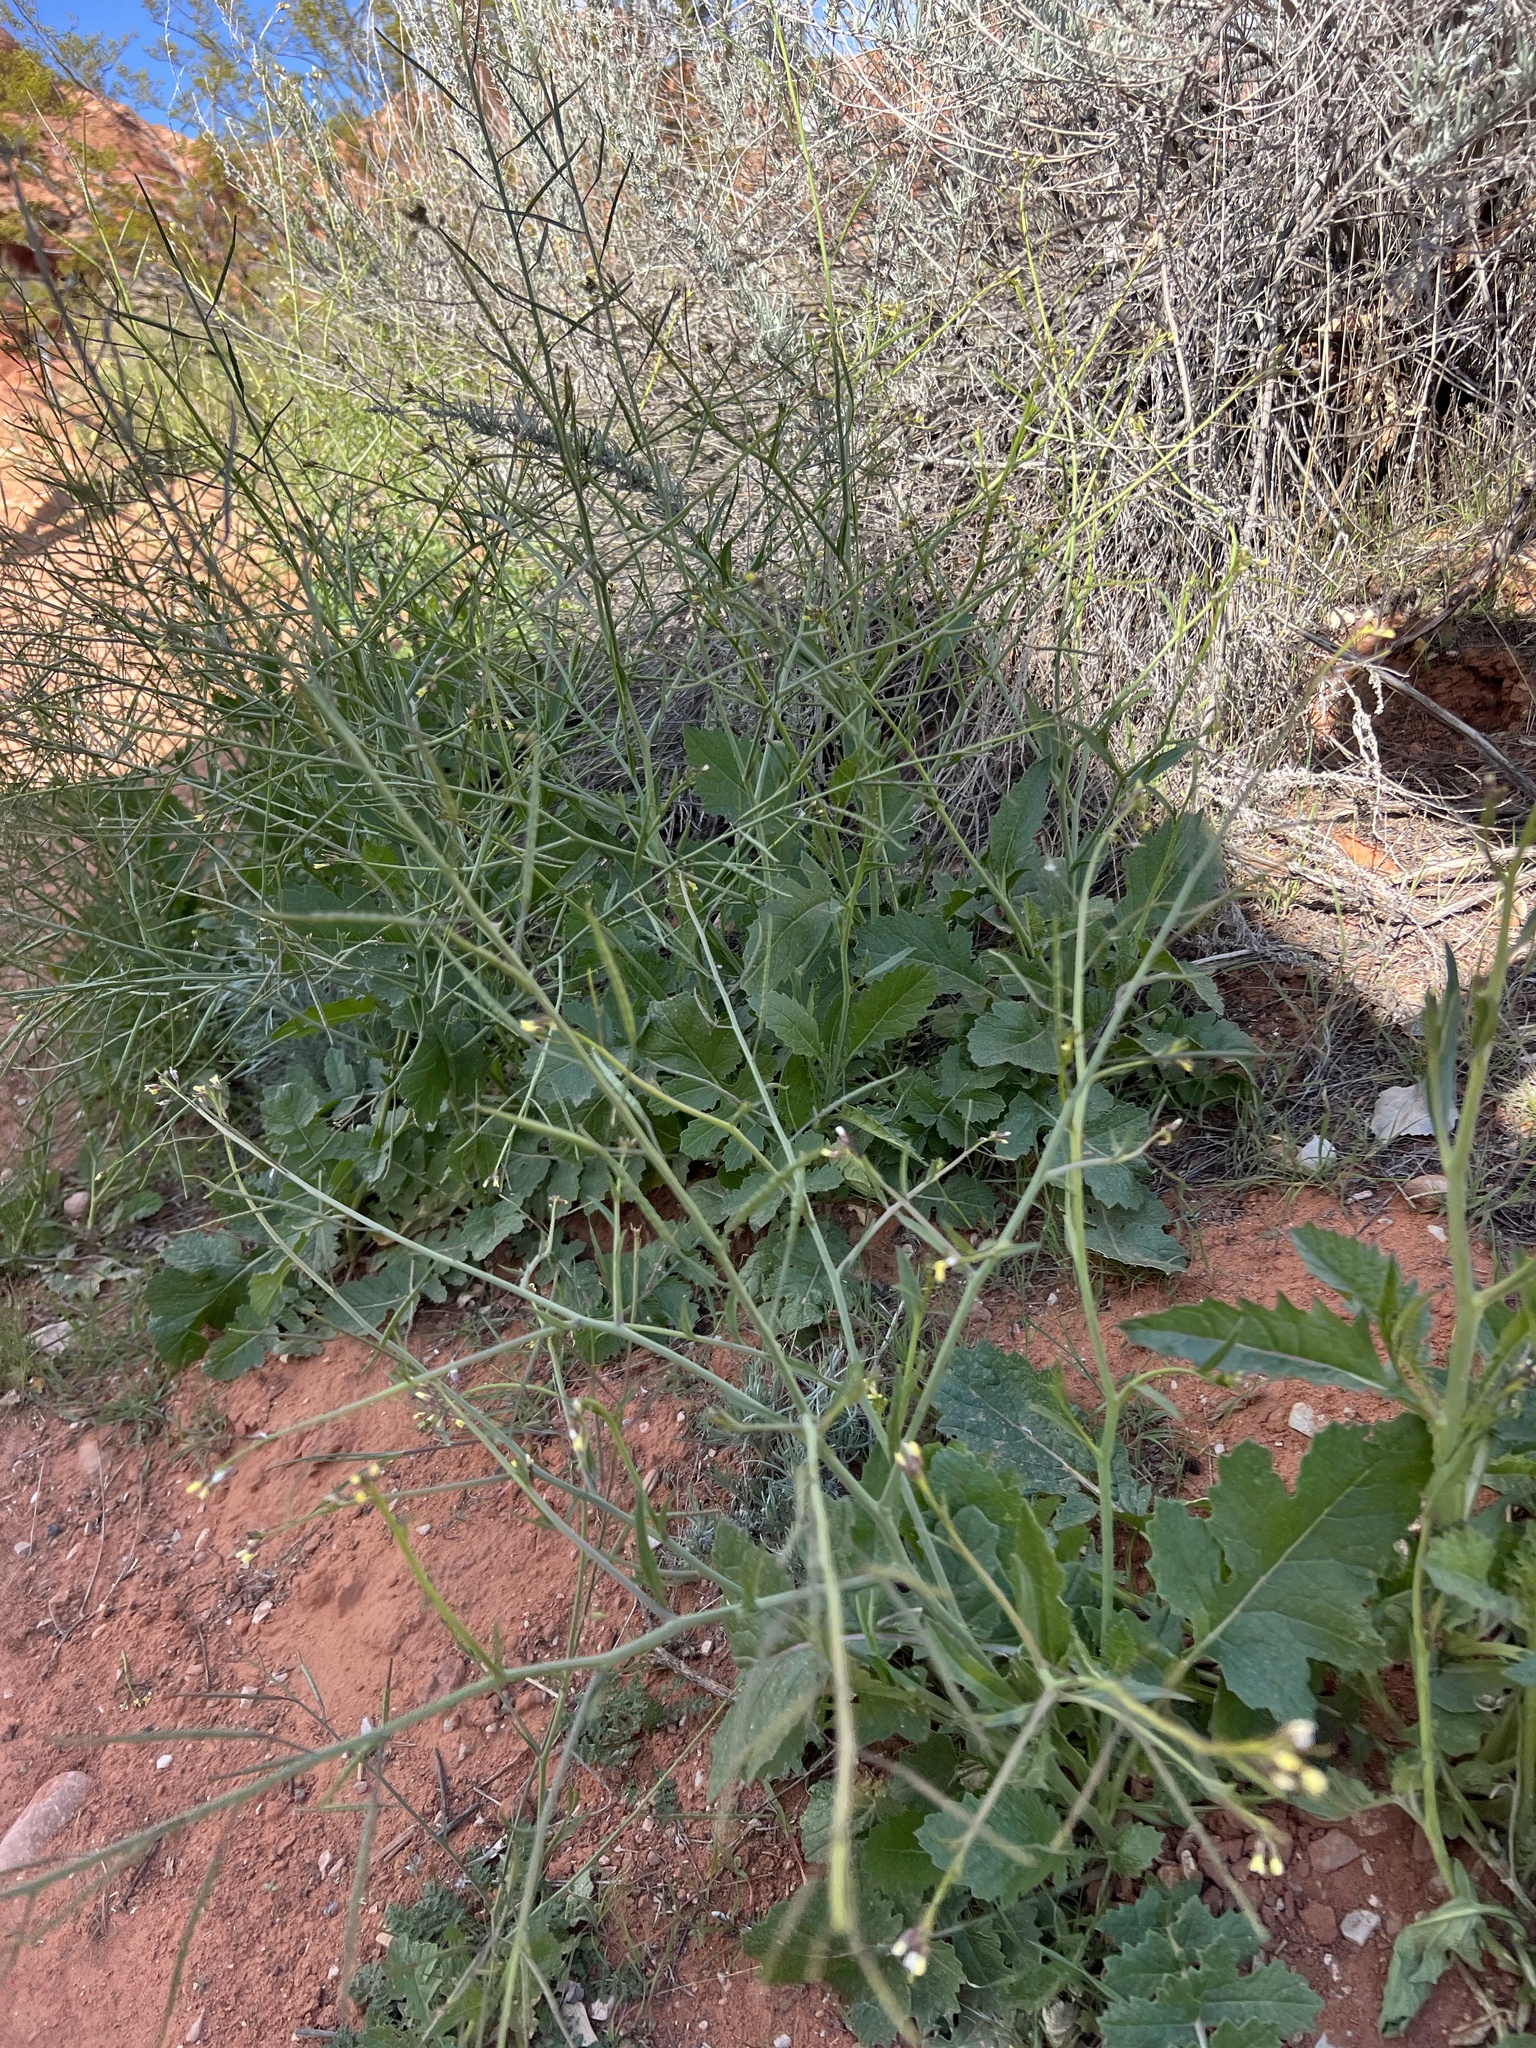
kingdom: Plantae
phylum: Tracheophyta
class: Magnoliopsida
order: Brassicales
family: Brassicaceae
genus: Brassica
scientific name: Brassica tournefortii
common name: Pale cabbage
